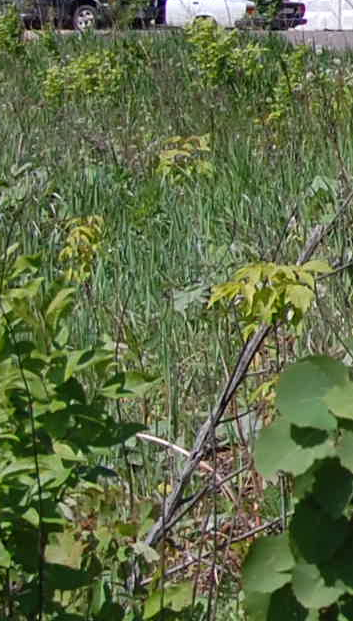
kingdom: Plantae
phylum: Tracheophyta
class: Magnoliopsida
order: Sapindales
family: Sapindaceae
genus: Acer
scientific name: Acer negundo
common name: Ashleaf maple
